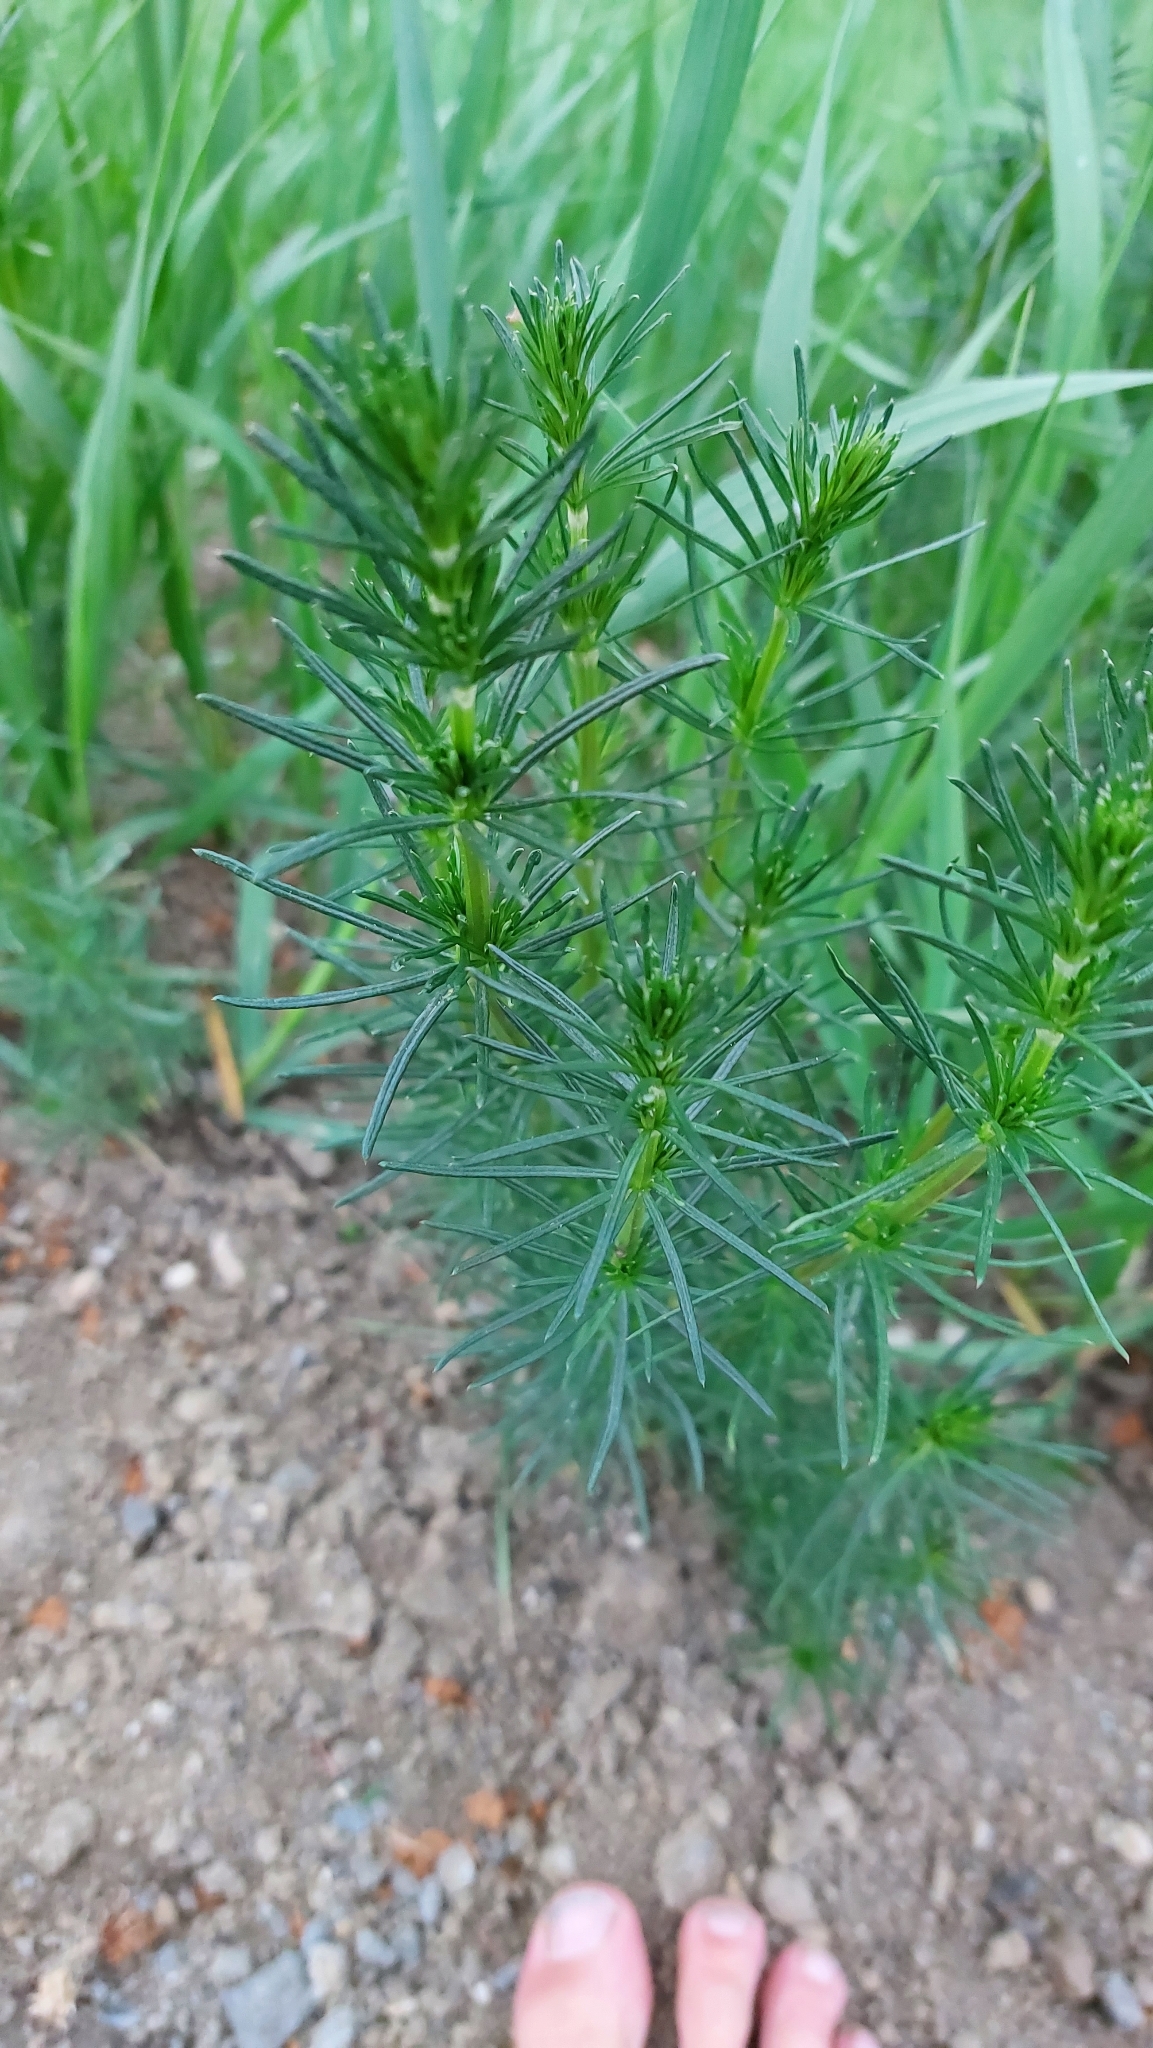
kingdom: Plantae
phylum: Tracheophyta
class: Magnoliopsida
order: Gentianales
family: Rubiaceae
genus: Galium
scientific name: Galium verum
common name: Lady's bedstraw
